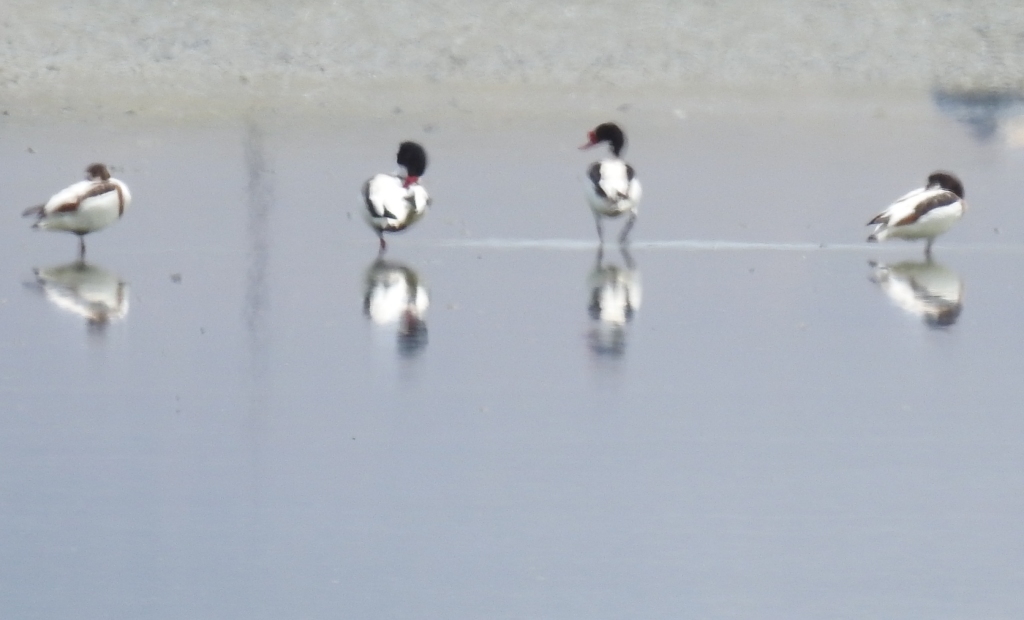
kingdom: Animalia
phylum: Chordata
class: Aves
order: Anseriformes
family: Anatidae
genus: Tadorna
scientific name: Tadorna tadorna
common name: Common shelduck
